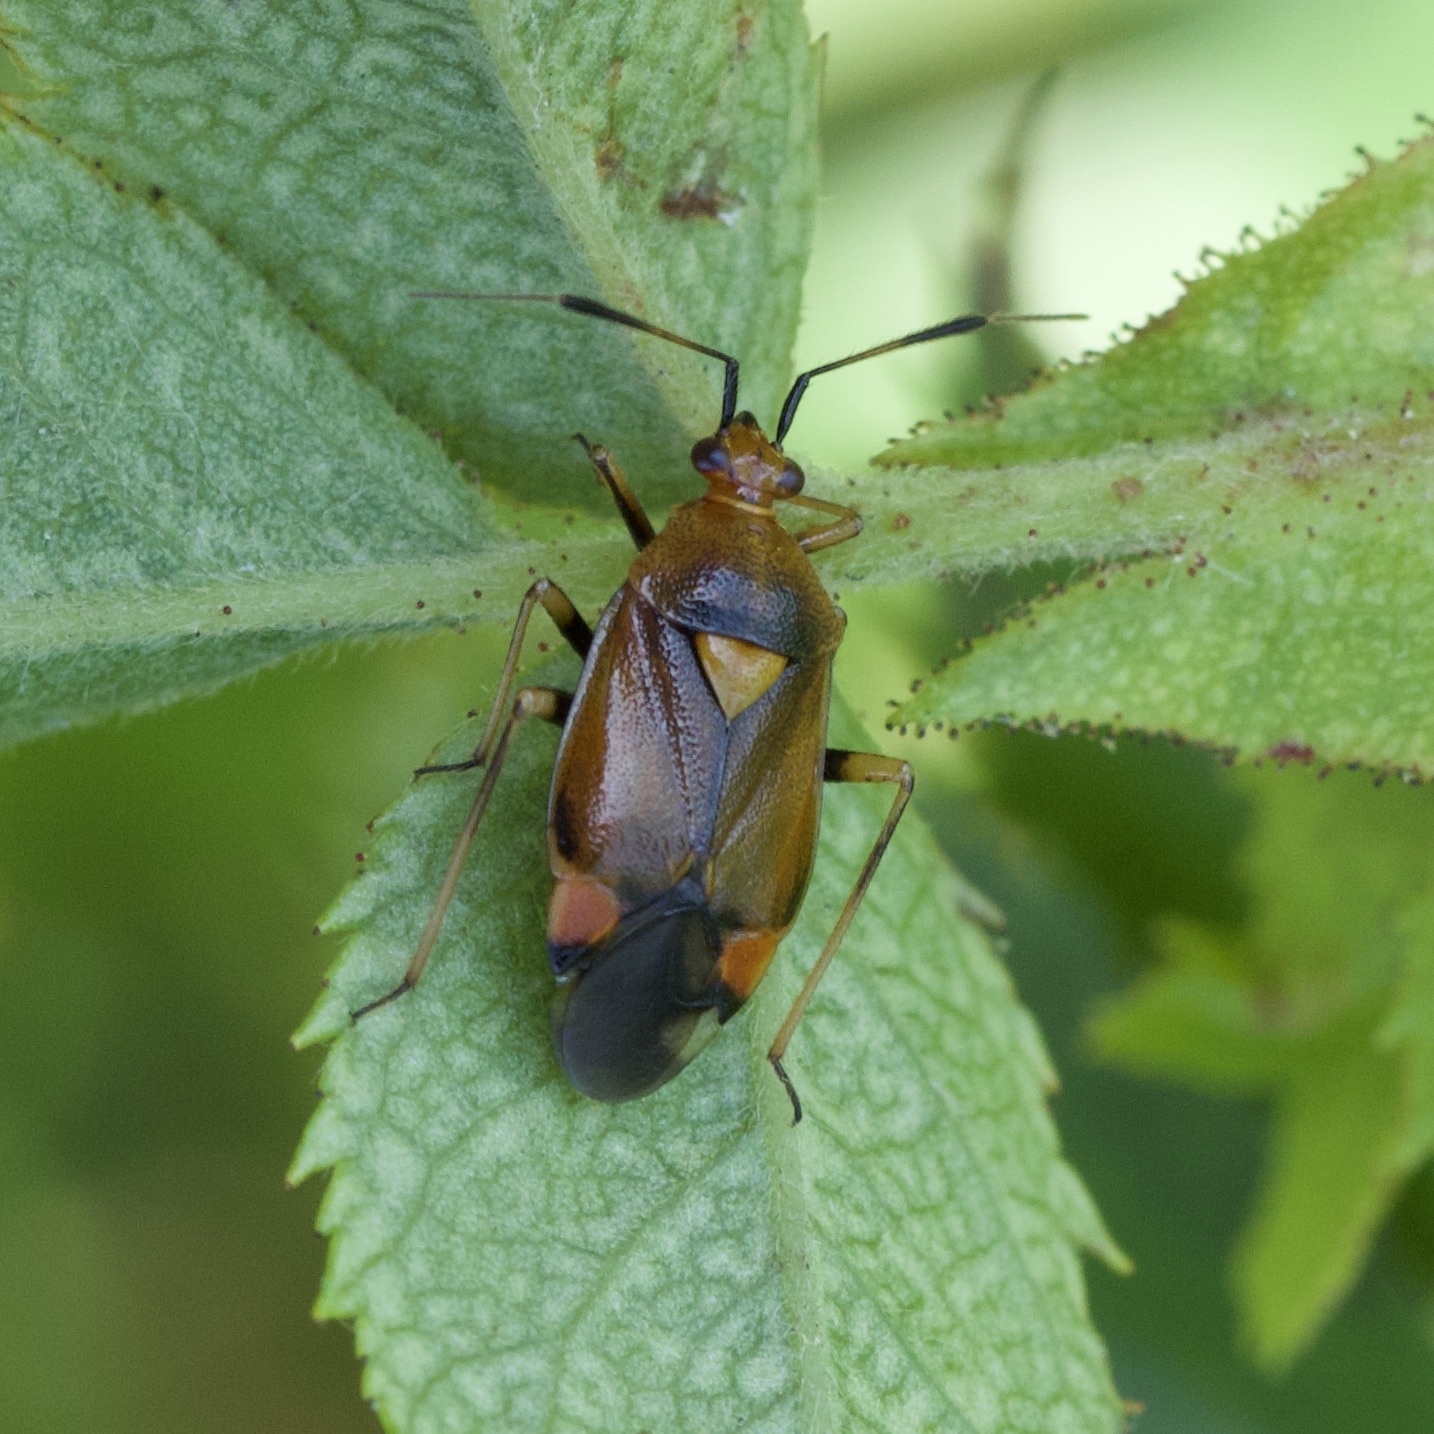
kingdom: Animalia
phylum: Arthropoda
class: Insecta
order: Hemiptera
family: Miridae
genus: Deraeocoris
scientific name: Deraeocoris ruber
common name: Plant bug
